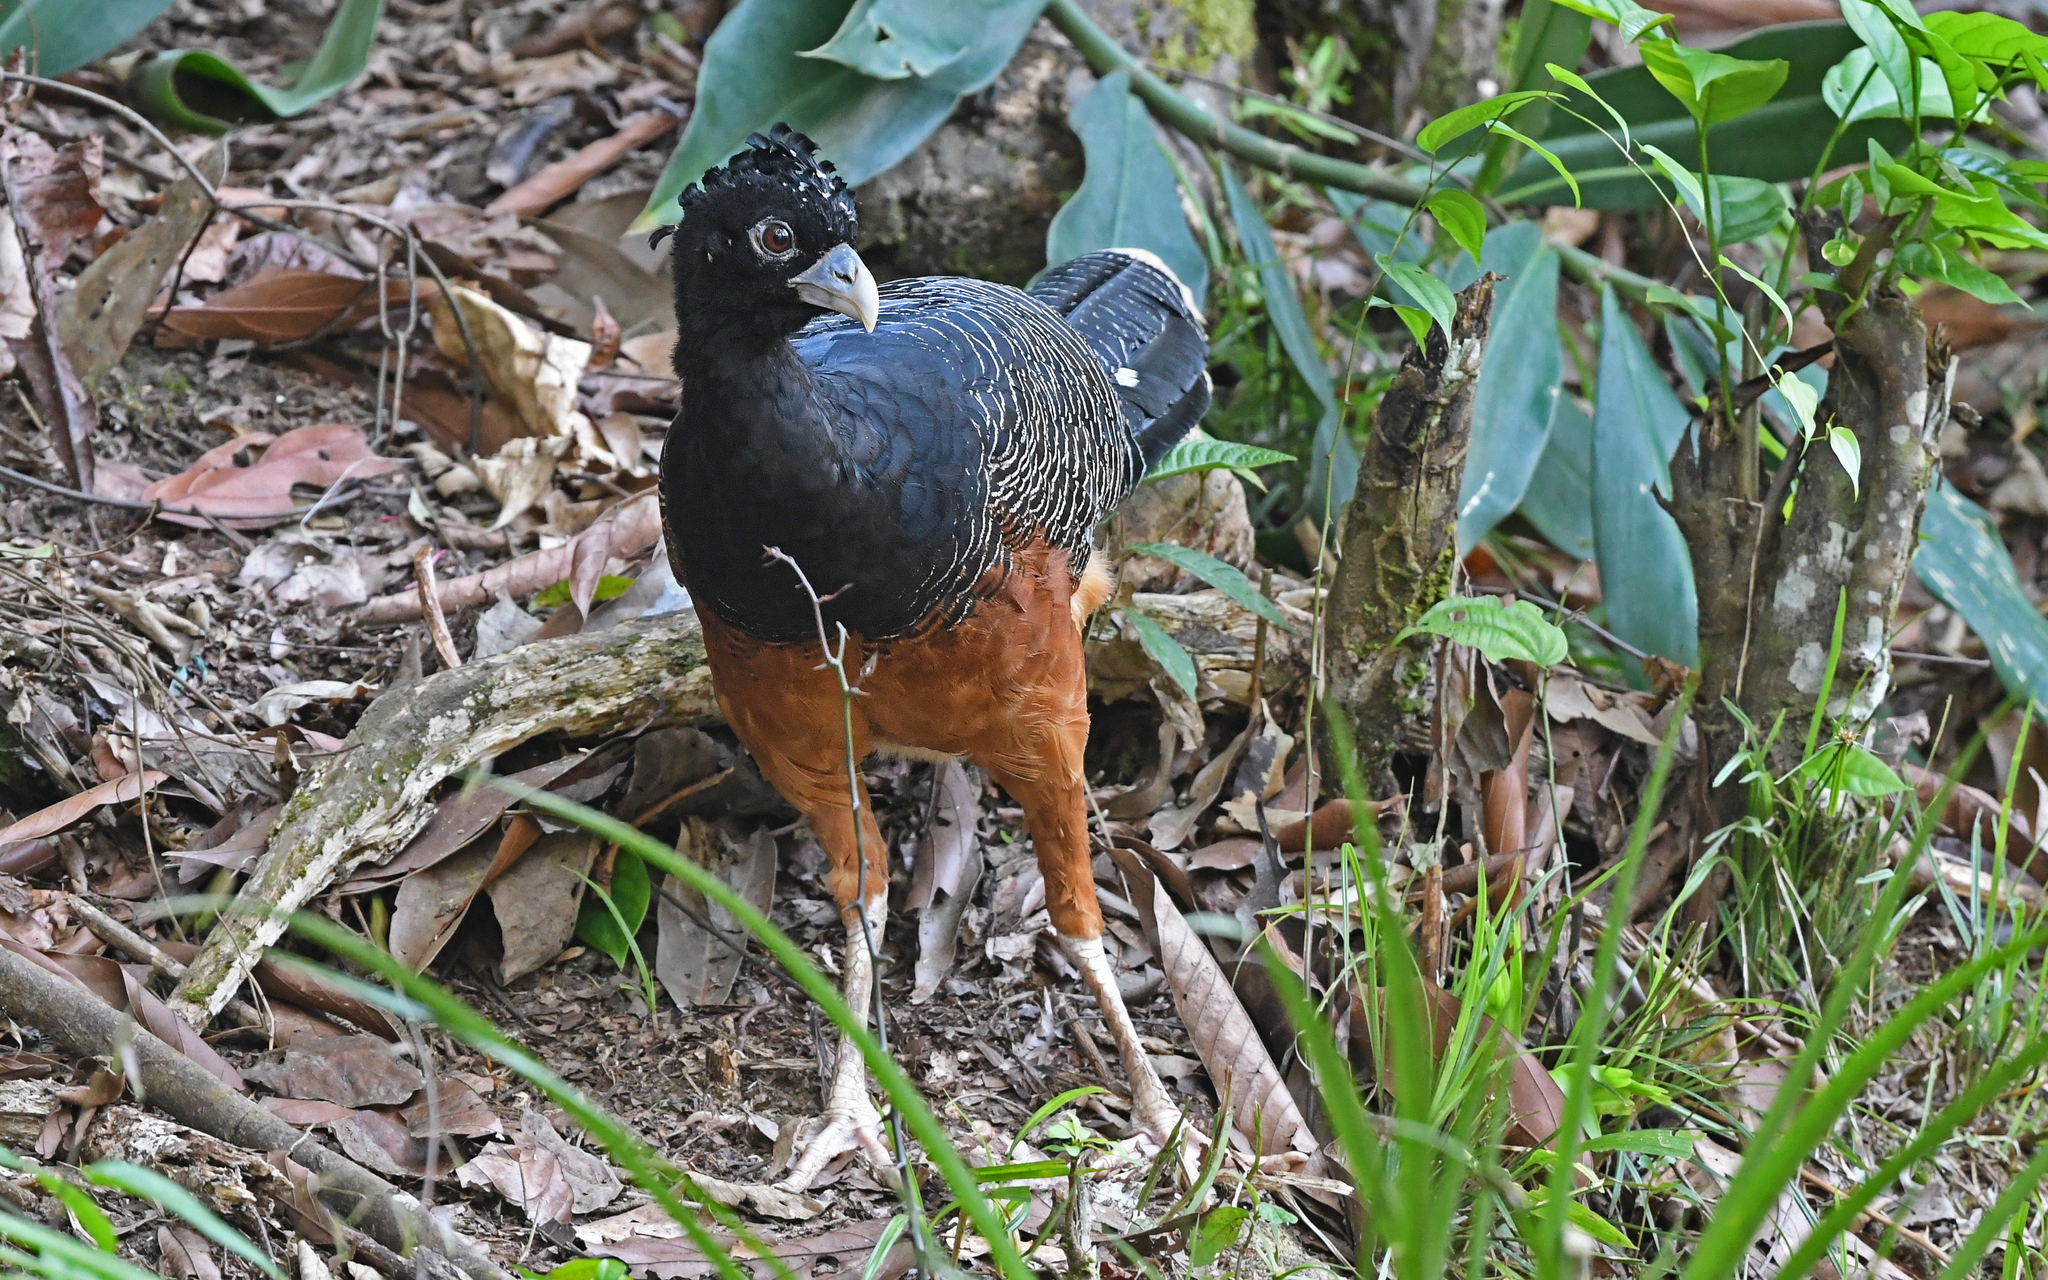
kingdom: Animalia
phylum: Chordata
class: Aves
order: Galliformes
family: Cracidae
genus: Crax
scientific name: Crax alberti
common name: Blue-billed curassow
